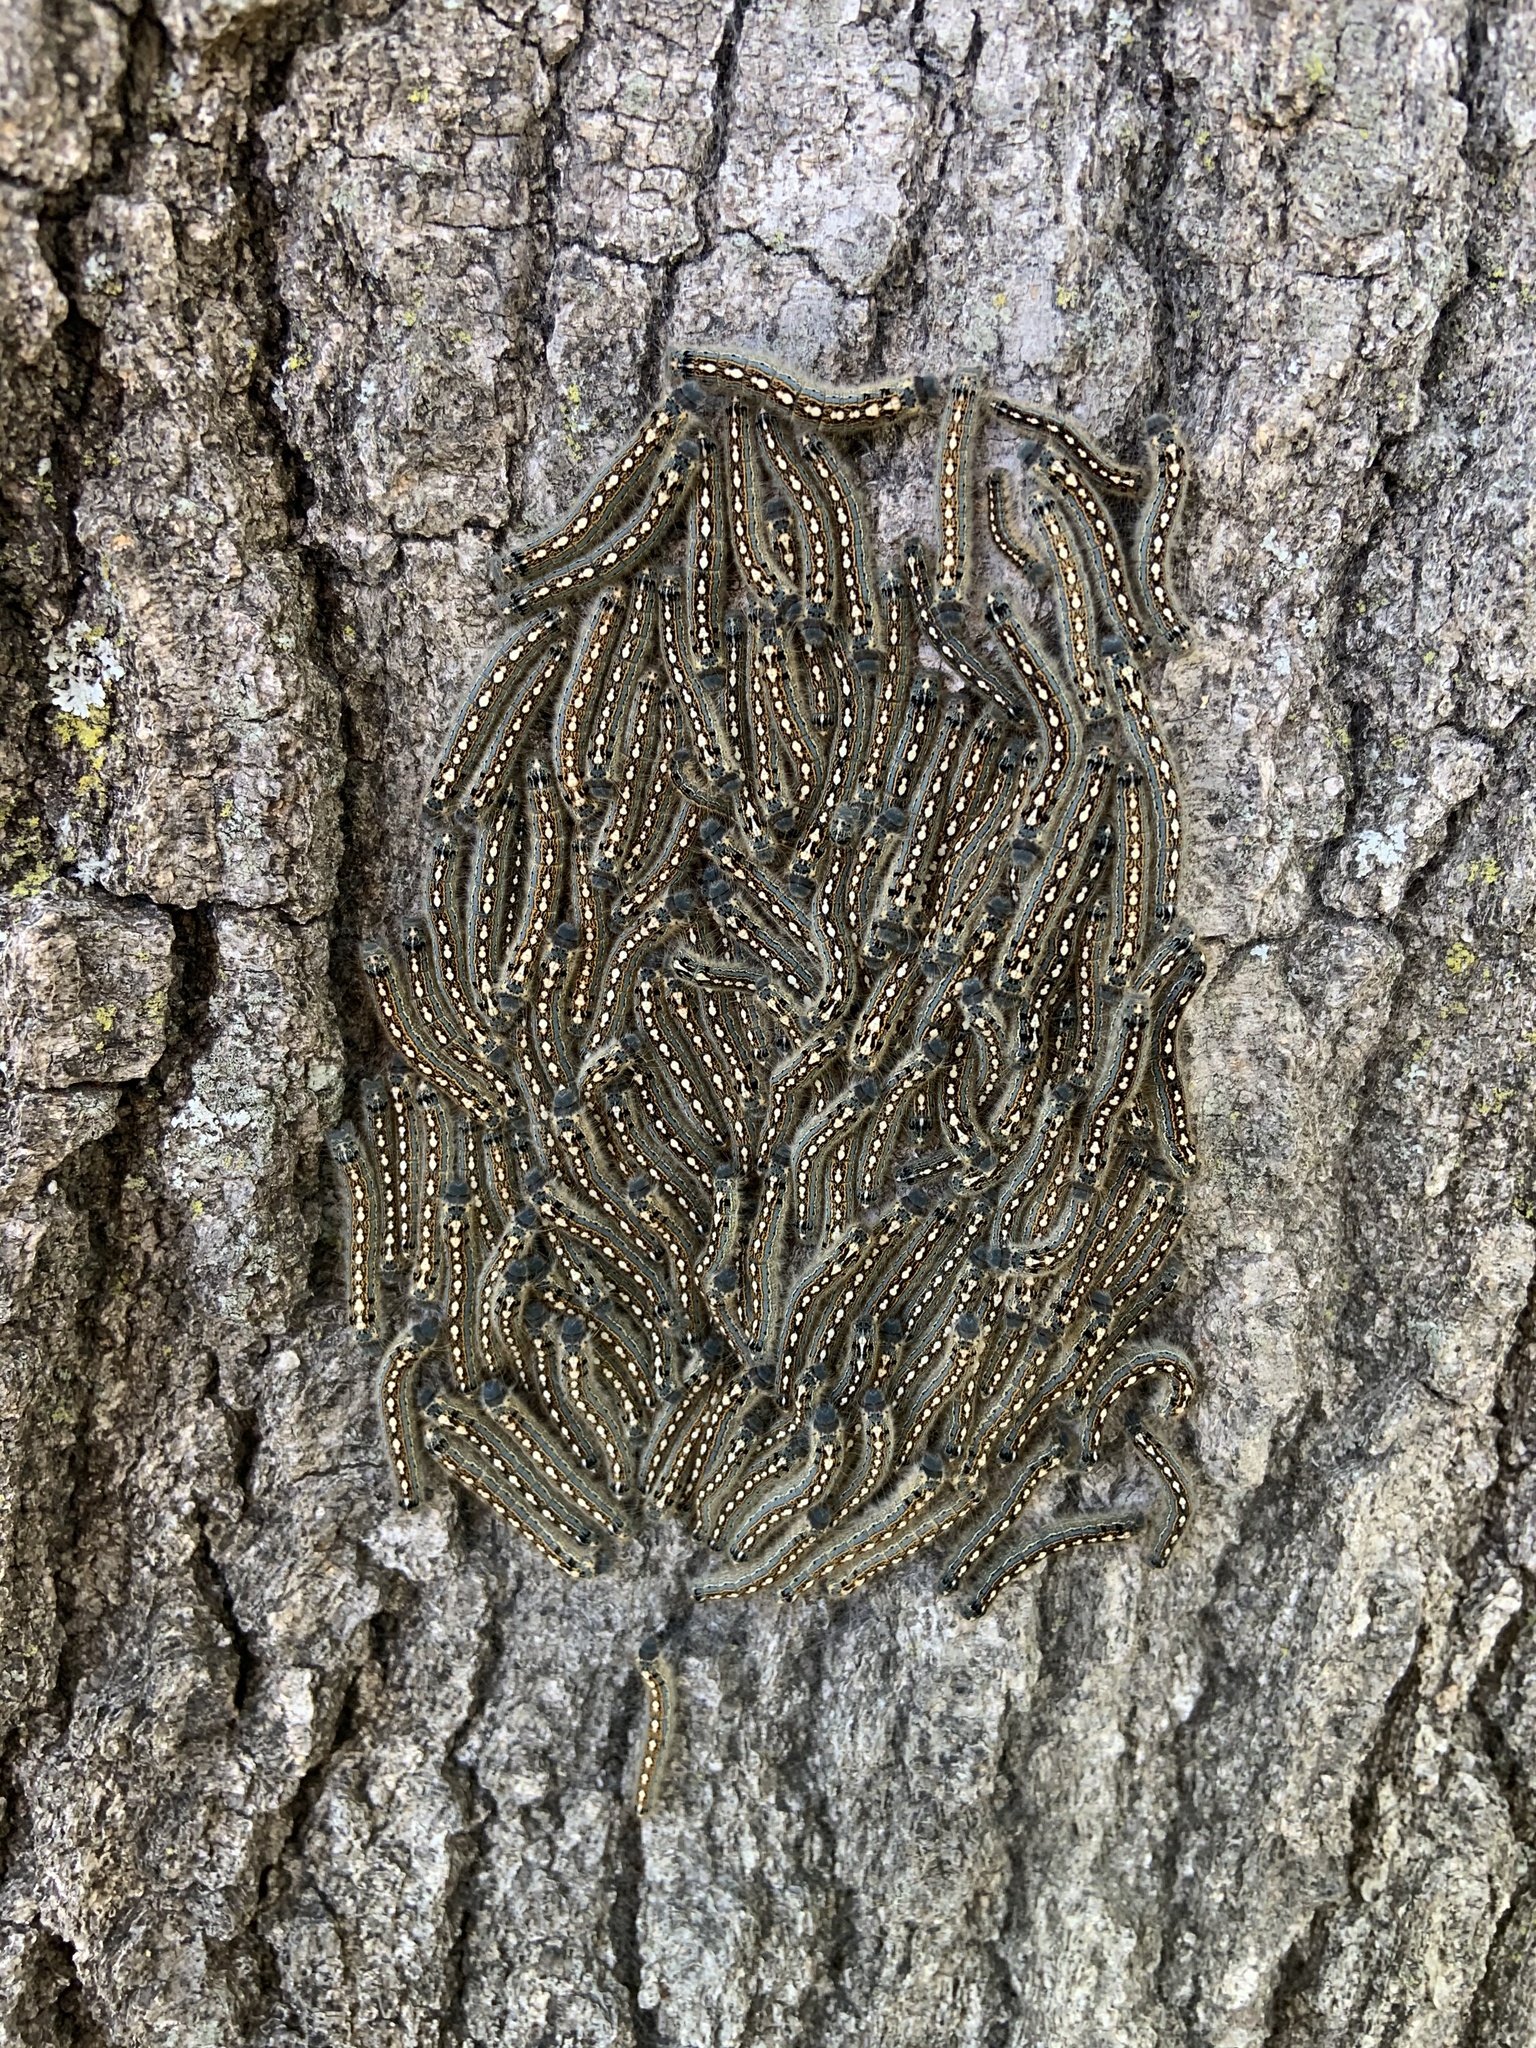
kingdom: Animalia
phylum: Arthropoda
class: Insecta
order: Lepidoptera
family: Lasiocampidae
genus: Malacosoma
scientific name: Malacosoma disstria
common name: Forest tent caterpillar
